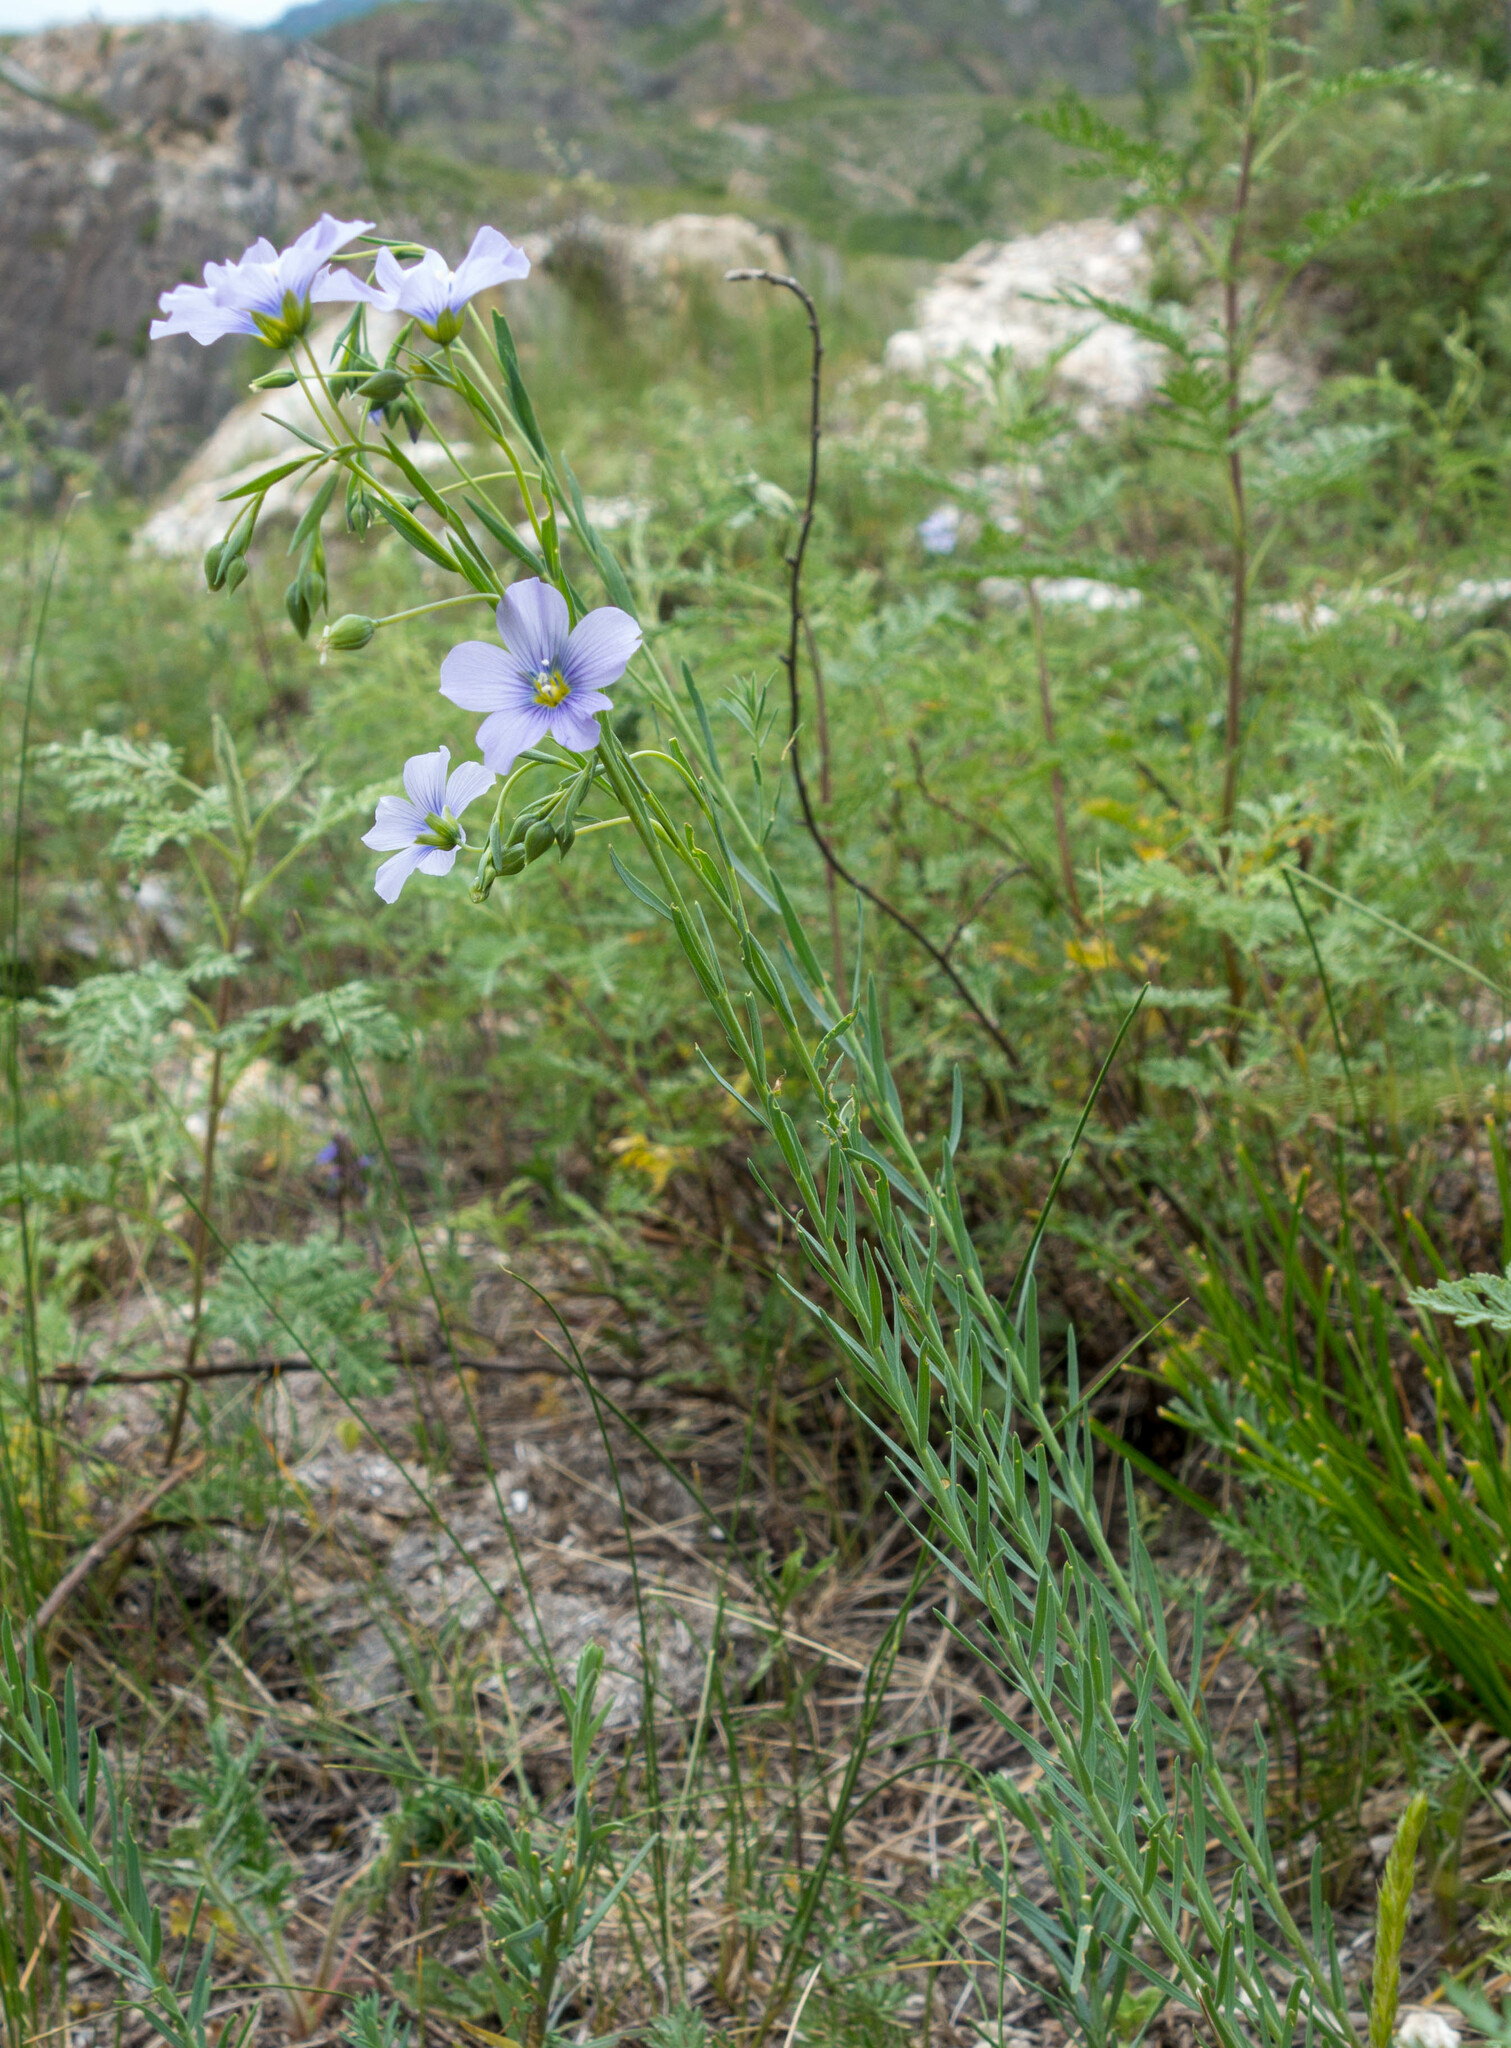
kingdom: Plantae
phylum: Tracheophyta
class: Magnoliopsida
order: Malpighiales
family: Linaceae
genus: Linum
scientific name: Linum perenne
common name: Blue flax
